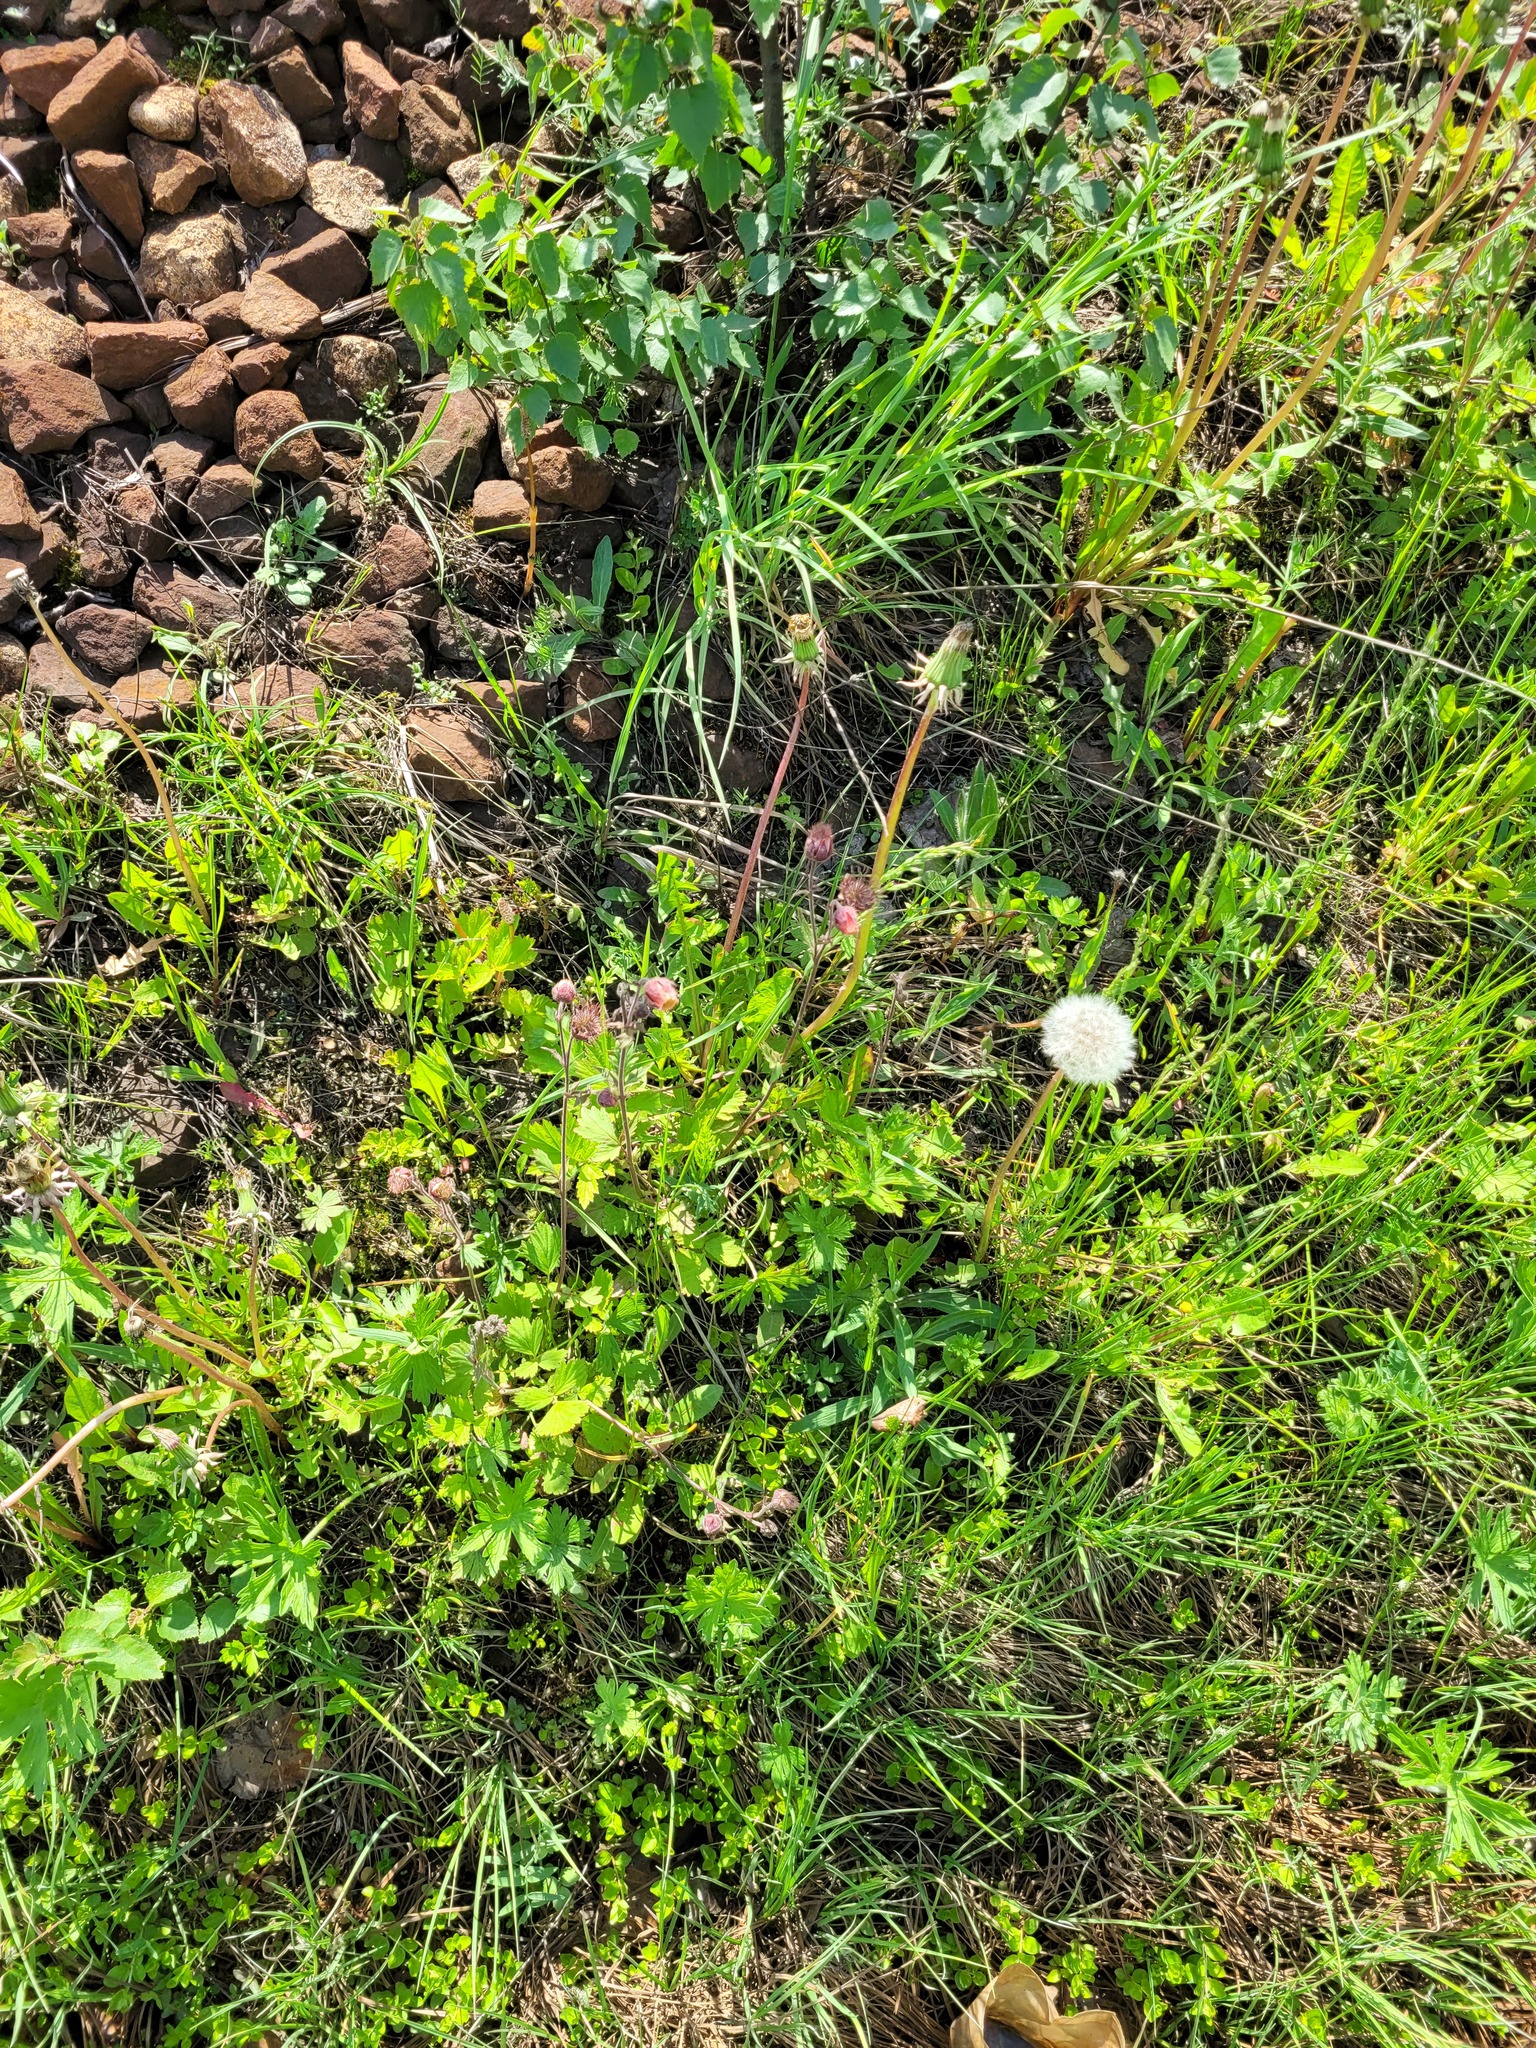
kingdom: Plantae
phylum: Tracheophyta
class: Magnoliopsida
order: Rosales
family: Rosaceae
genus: Geum
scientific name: Geum rivale
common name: Water avens
